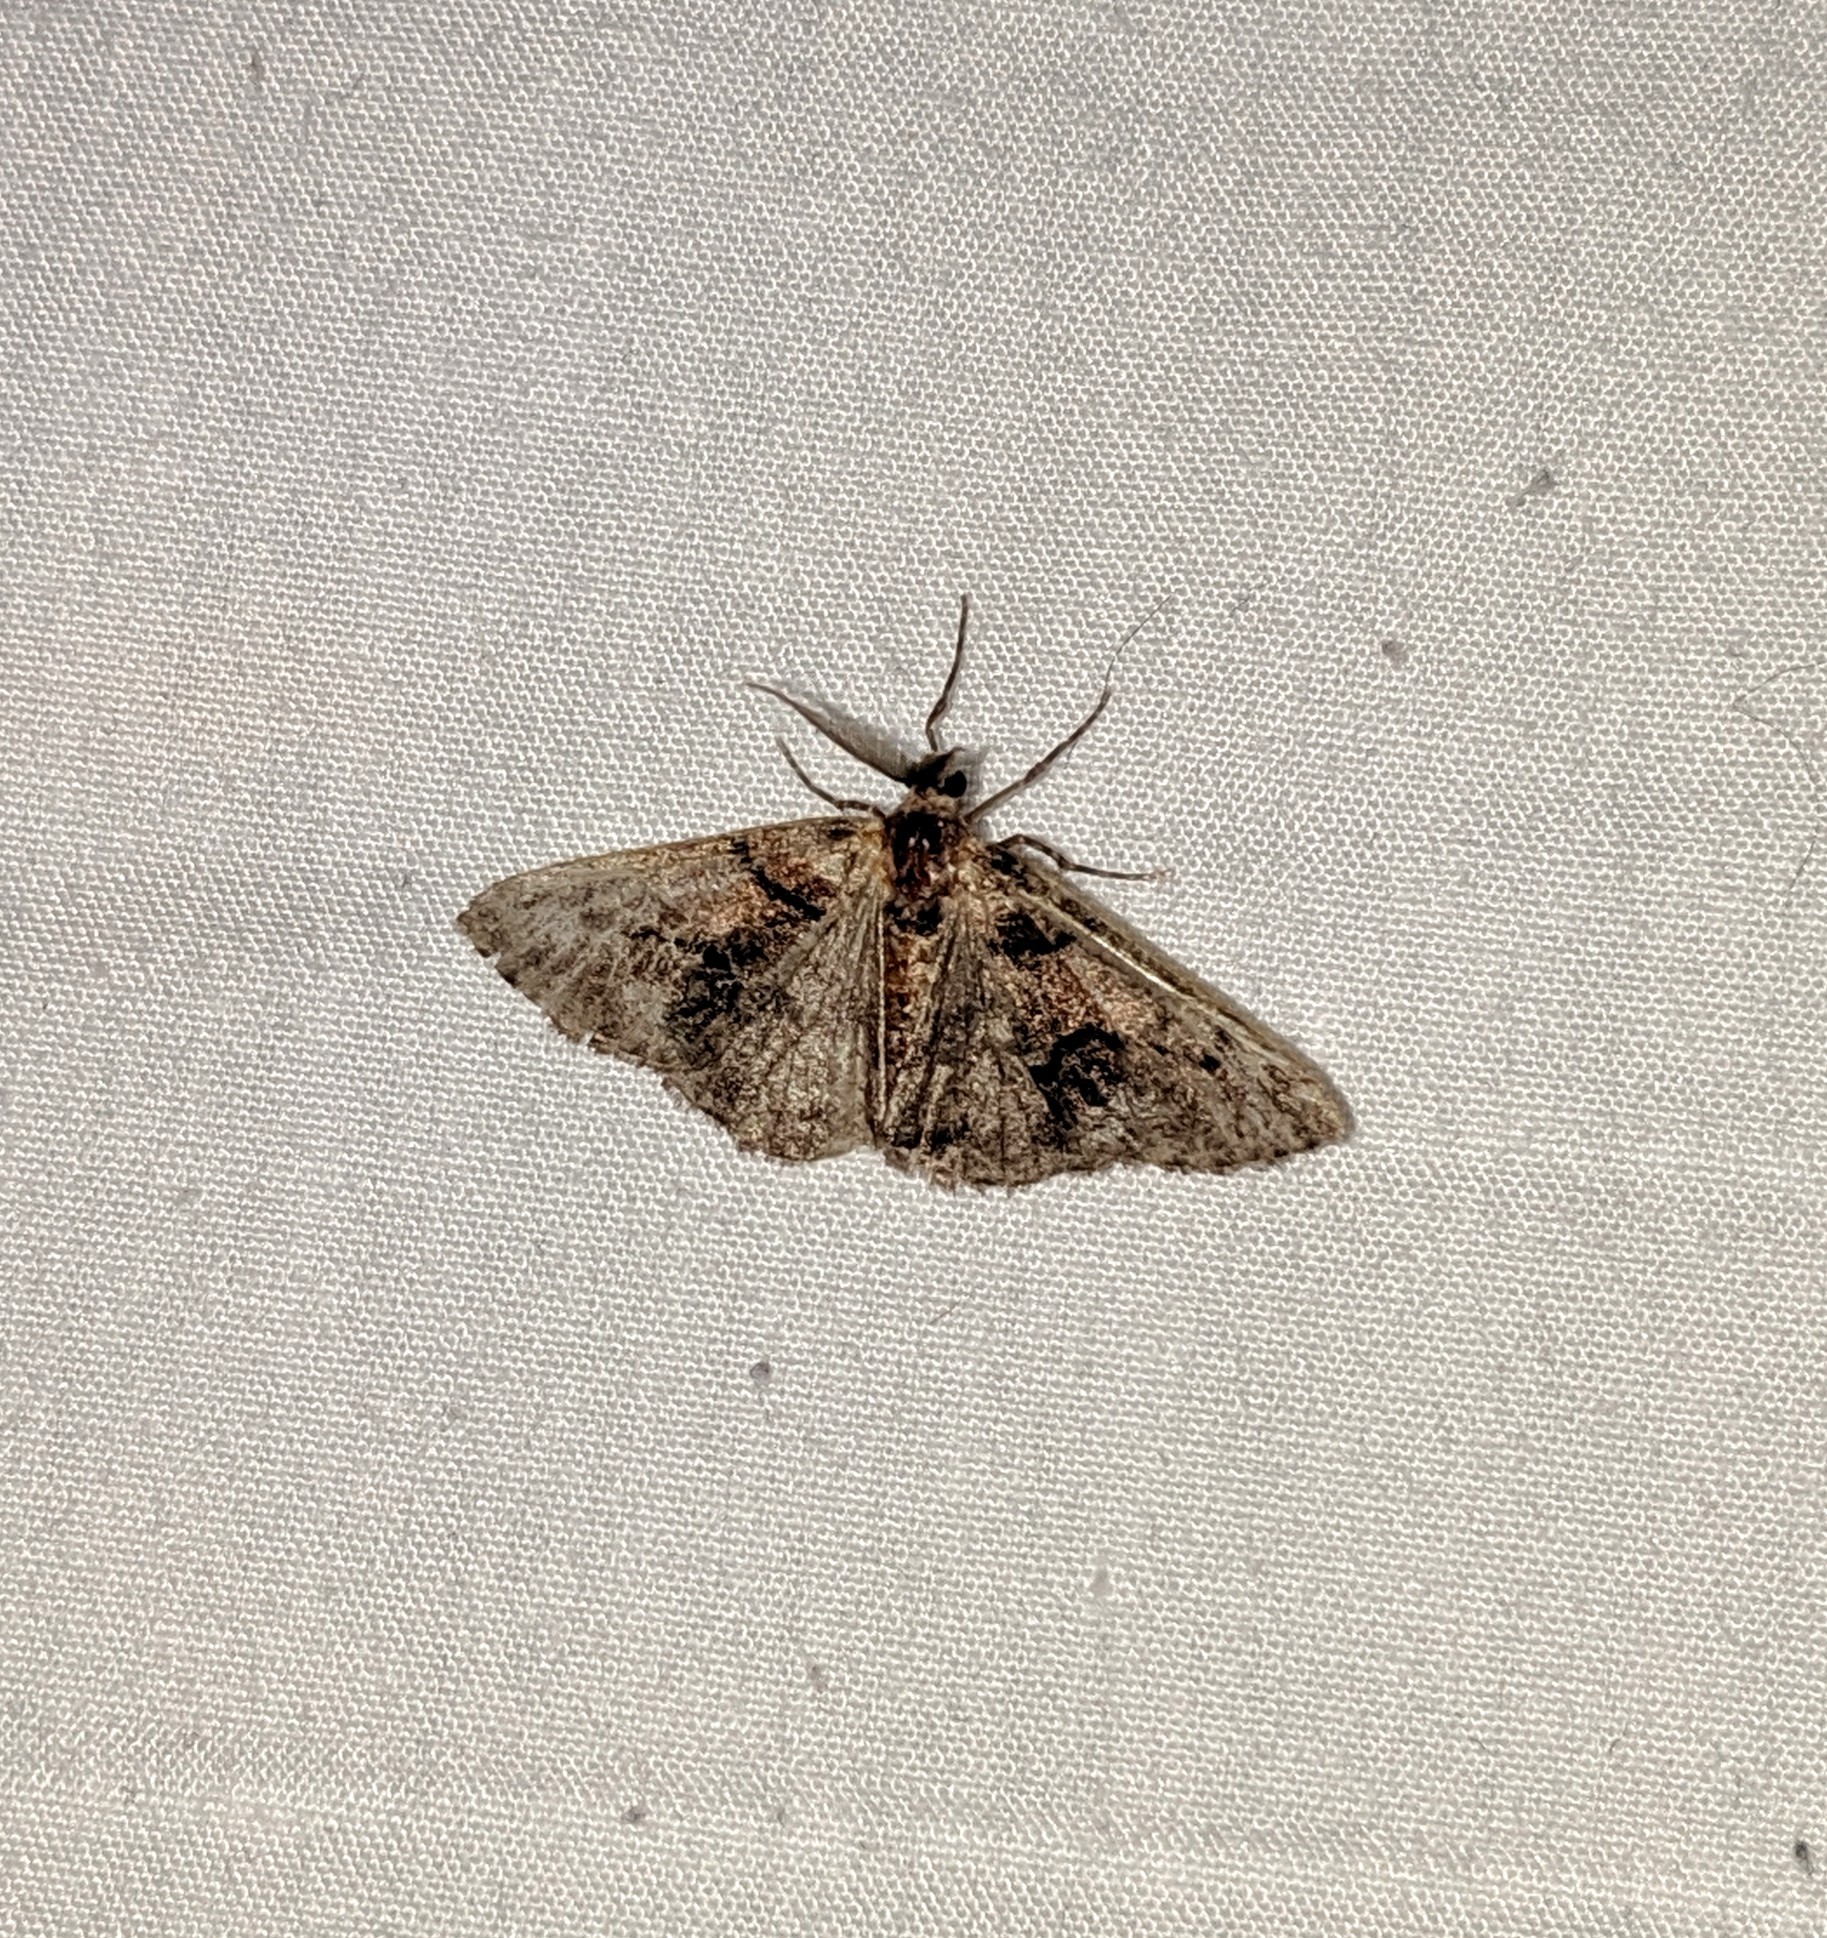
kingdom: Animalia
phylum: Arthropoda
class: Insecta
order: Lepidoptera
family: Geometridae
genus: Gabriola
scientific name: Gabriola dyari
